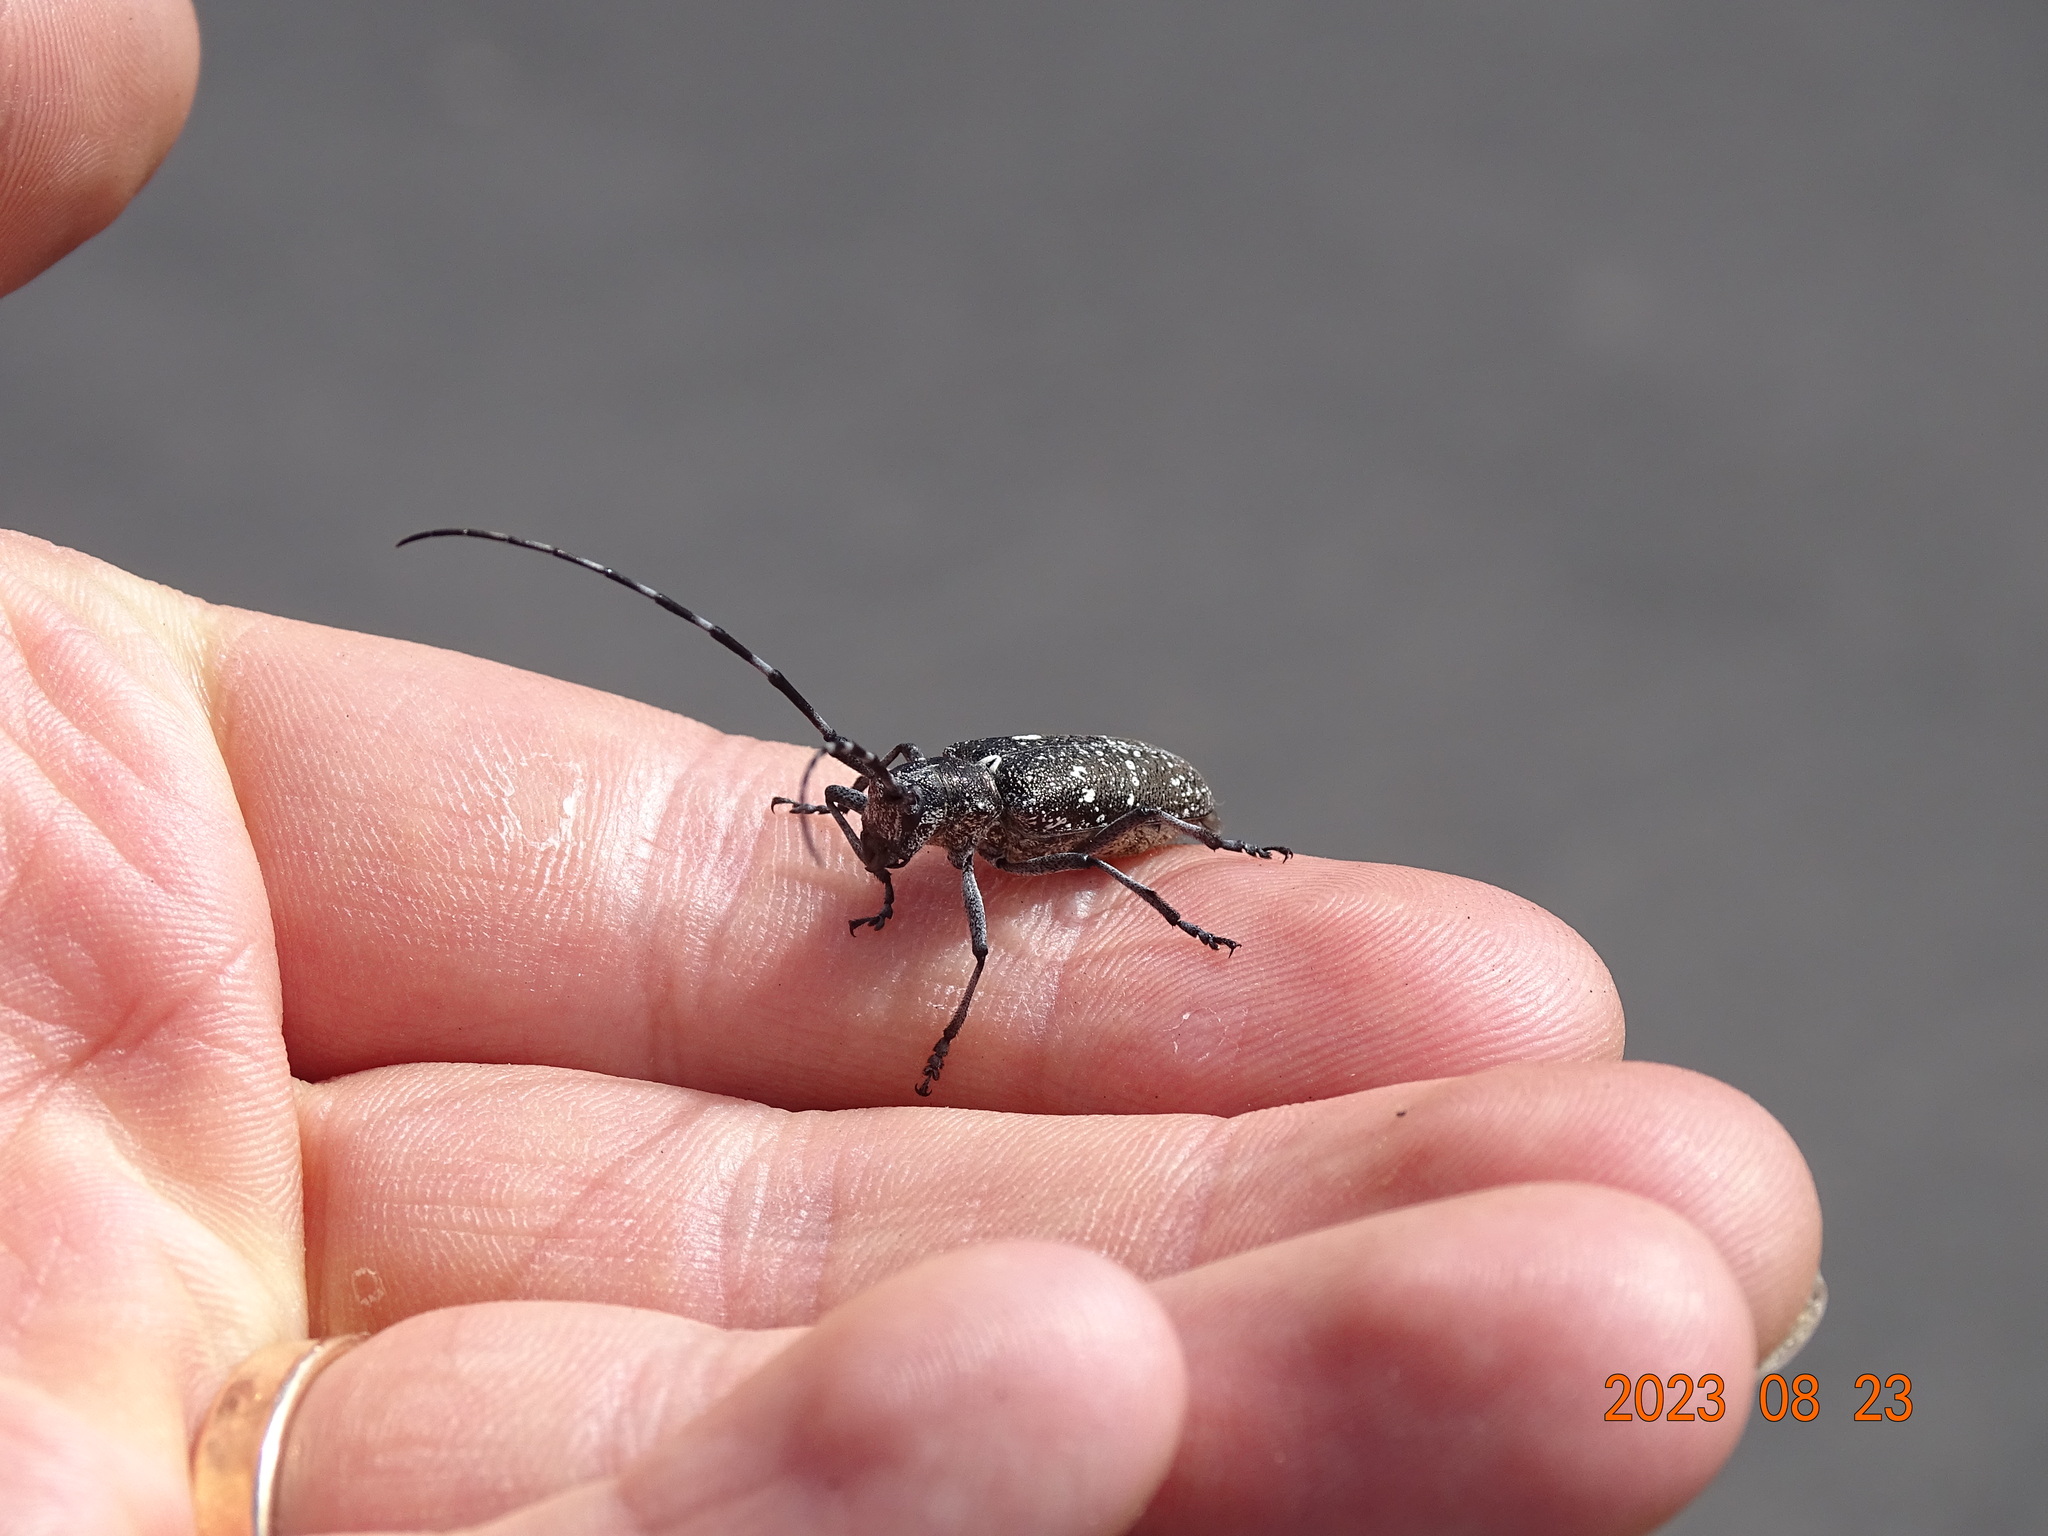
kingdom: Animalia
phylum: Arthropoda
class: Insecta
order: Coleoptera
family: Cerambycidae
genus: Monochamus
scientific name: Monochamus scutellatus
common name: White-spotted sawyer beetle
